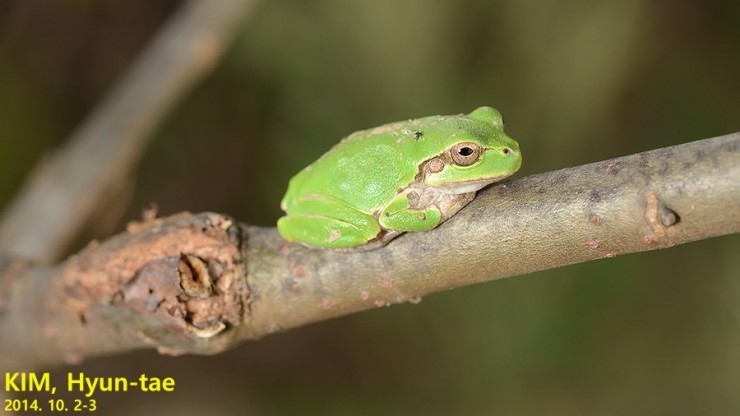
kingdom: Animalia
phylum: Chordata
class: Amphibia
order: Anura
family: Hylidae
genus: Dryophytes
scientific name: Dryophytes japonicus
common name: Japanese treefrog
